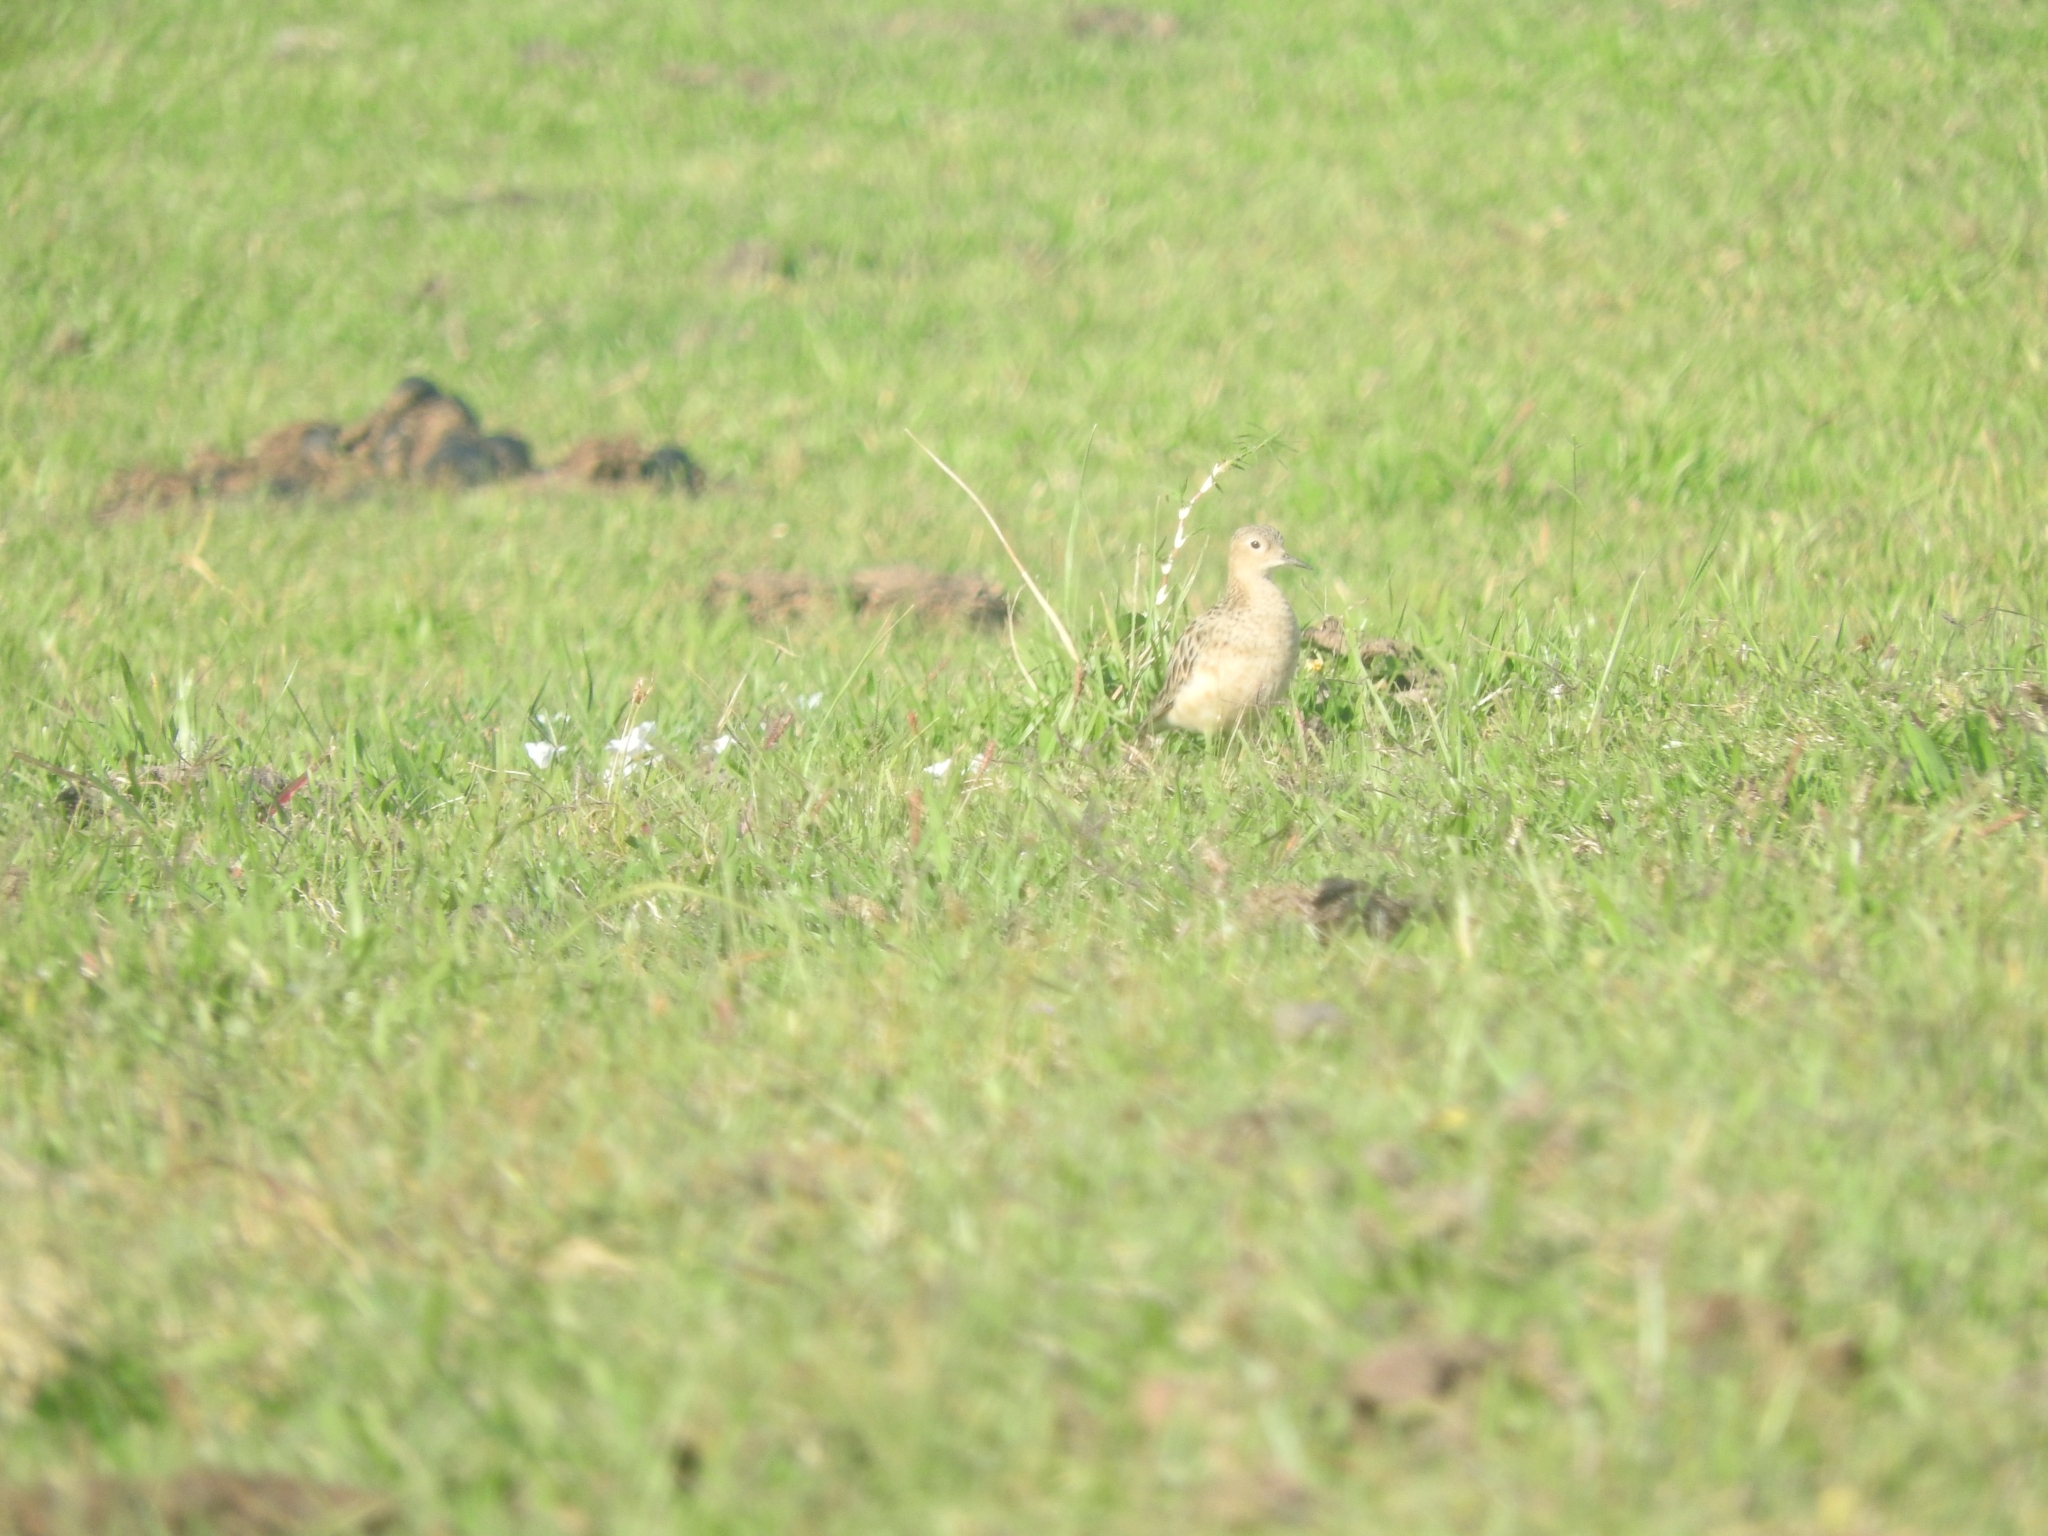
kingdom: Animalia
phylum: Chordata
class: Aves
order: Charadriiformes
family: Scolopacidae
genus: Calidris
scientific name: Calidris subruficollis
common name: Buff-breasted sandpiper
